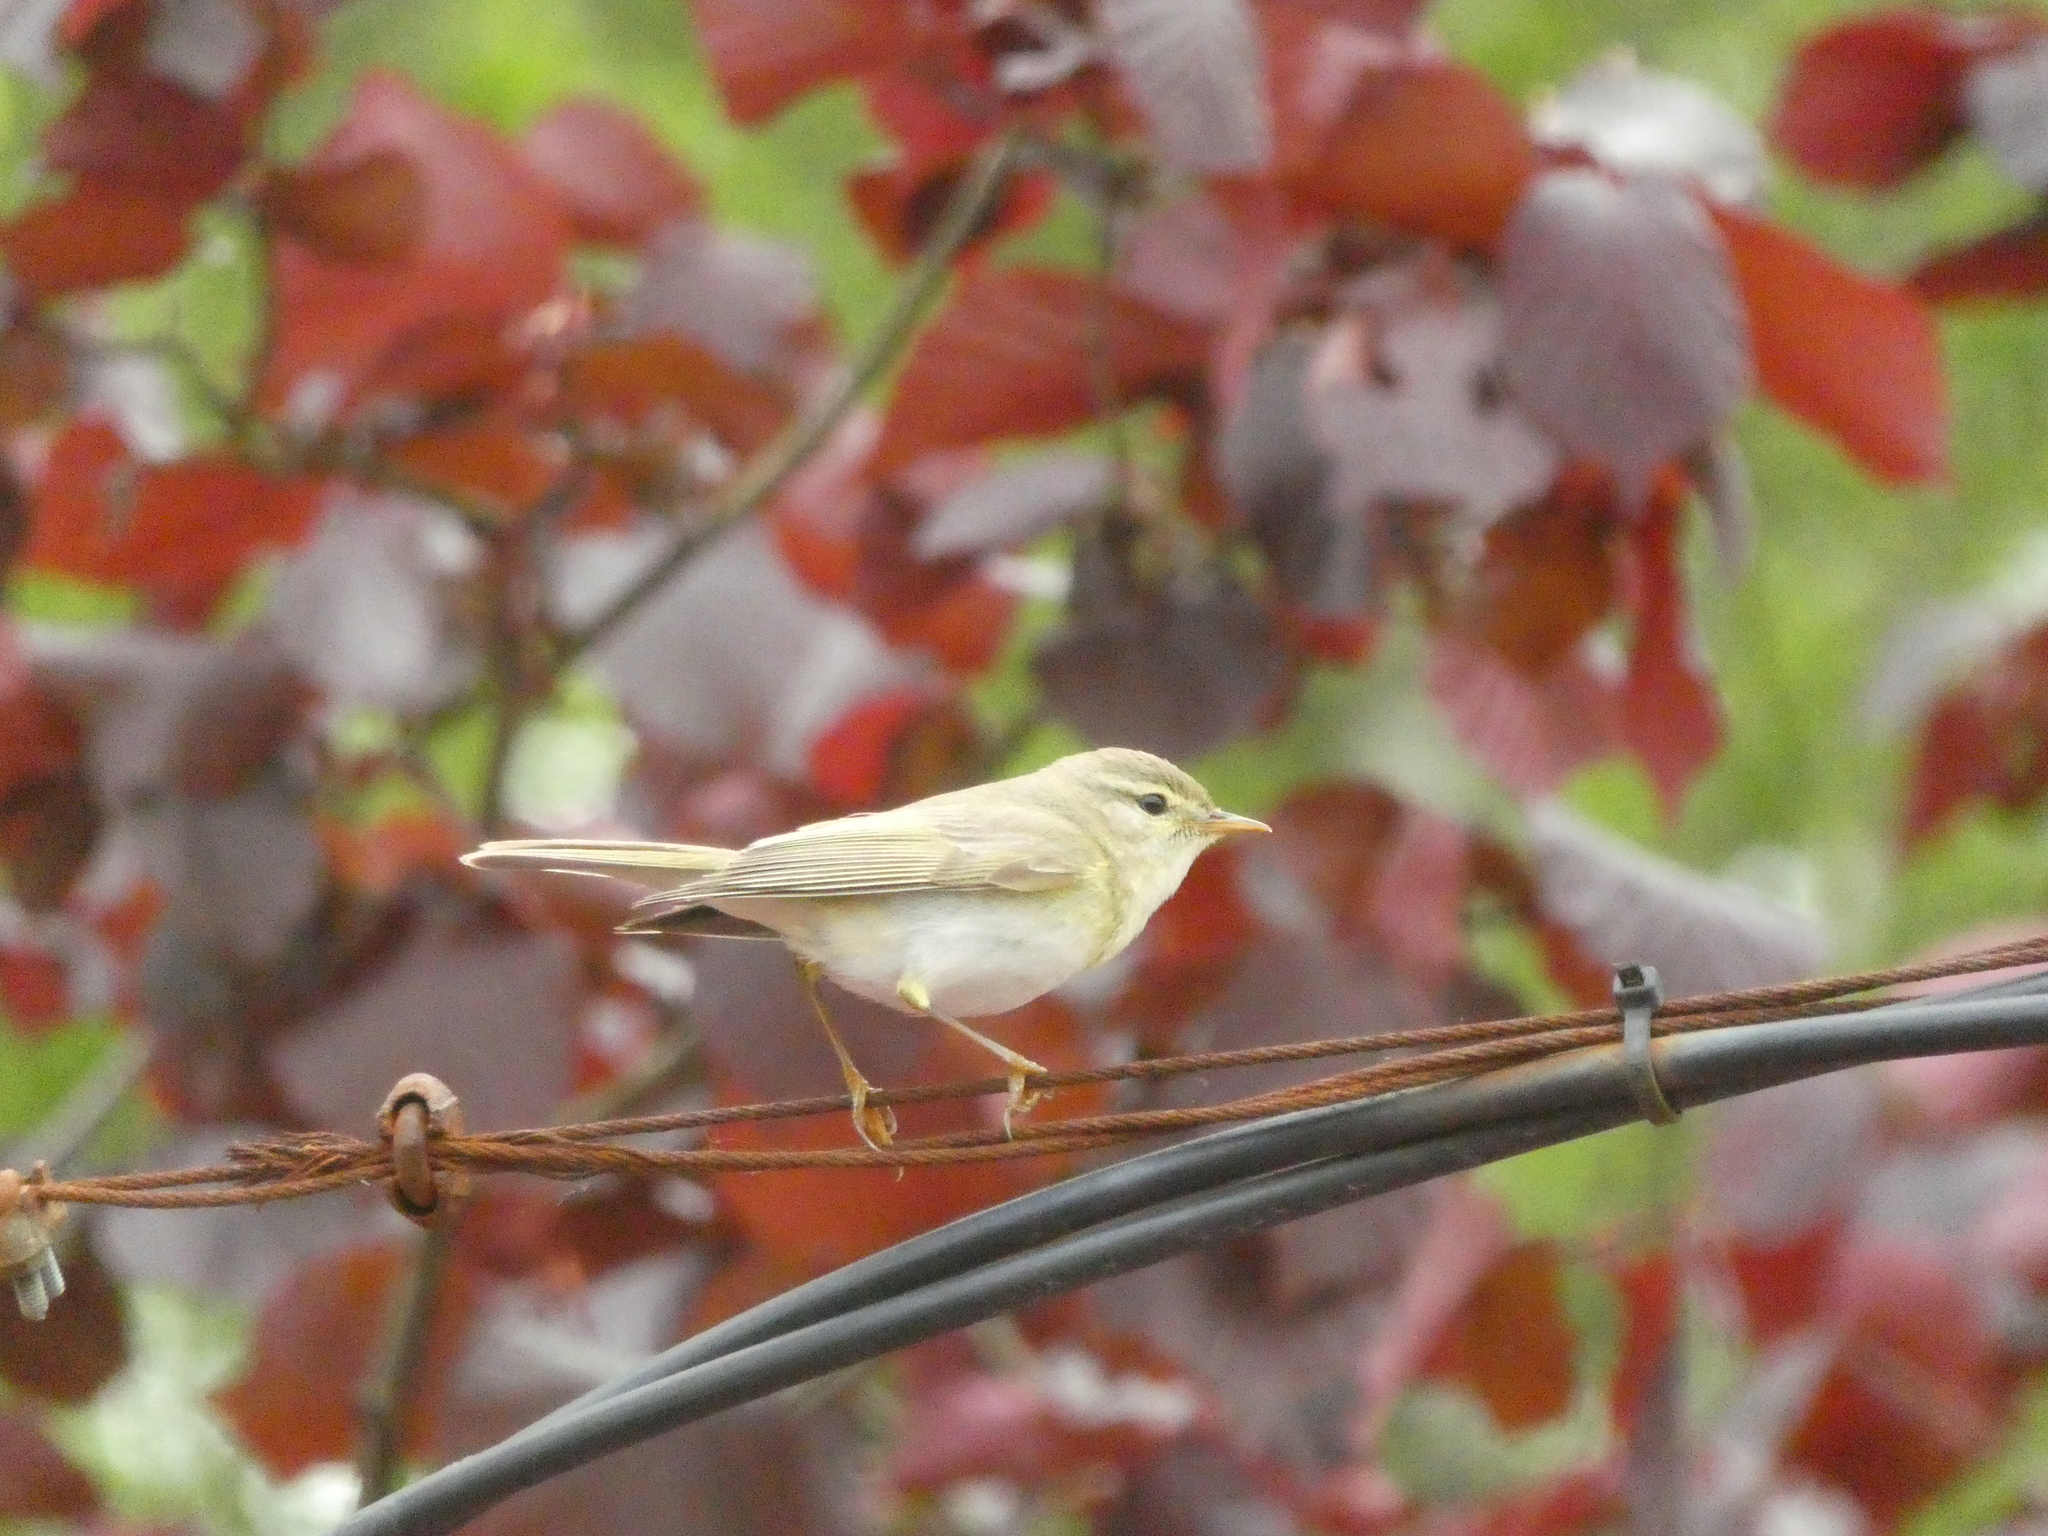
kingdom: Animalia
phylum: Chordata
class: Aves
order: Passeriformes
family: Phylloscopidae
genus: Phylloscopus
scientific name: Phylloscopus trochilus
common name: Willow warbler
